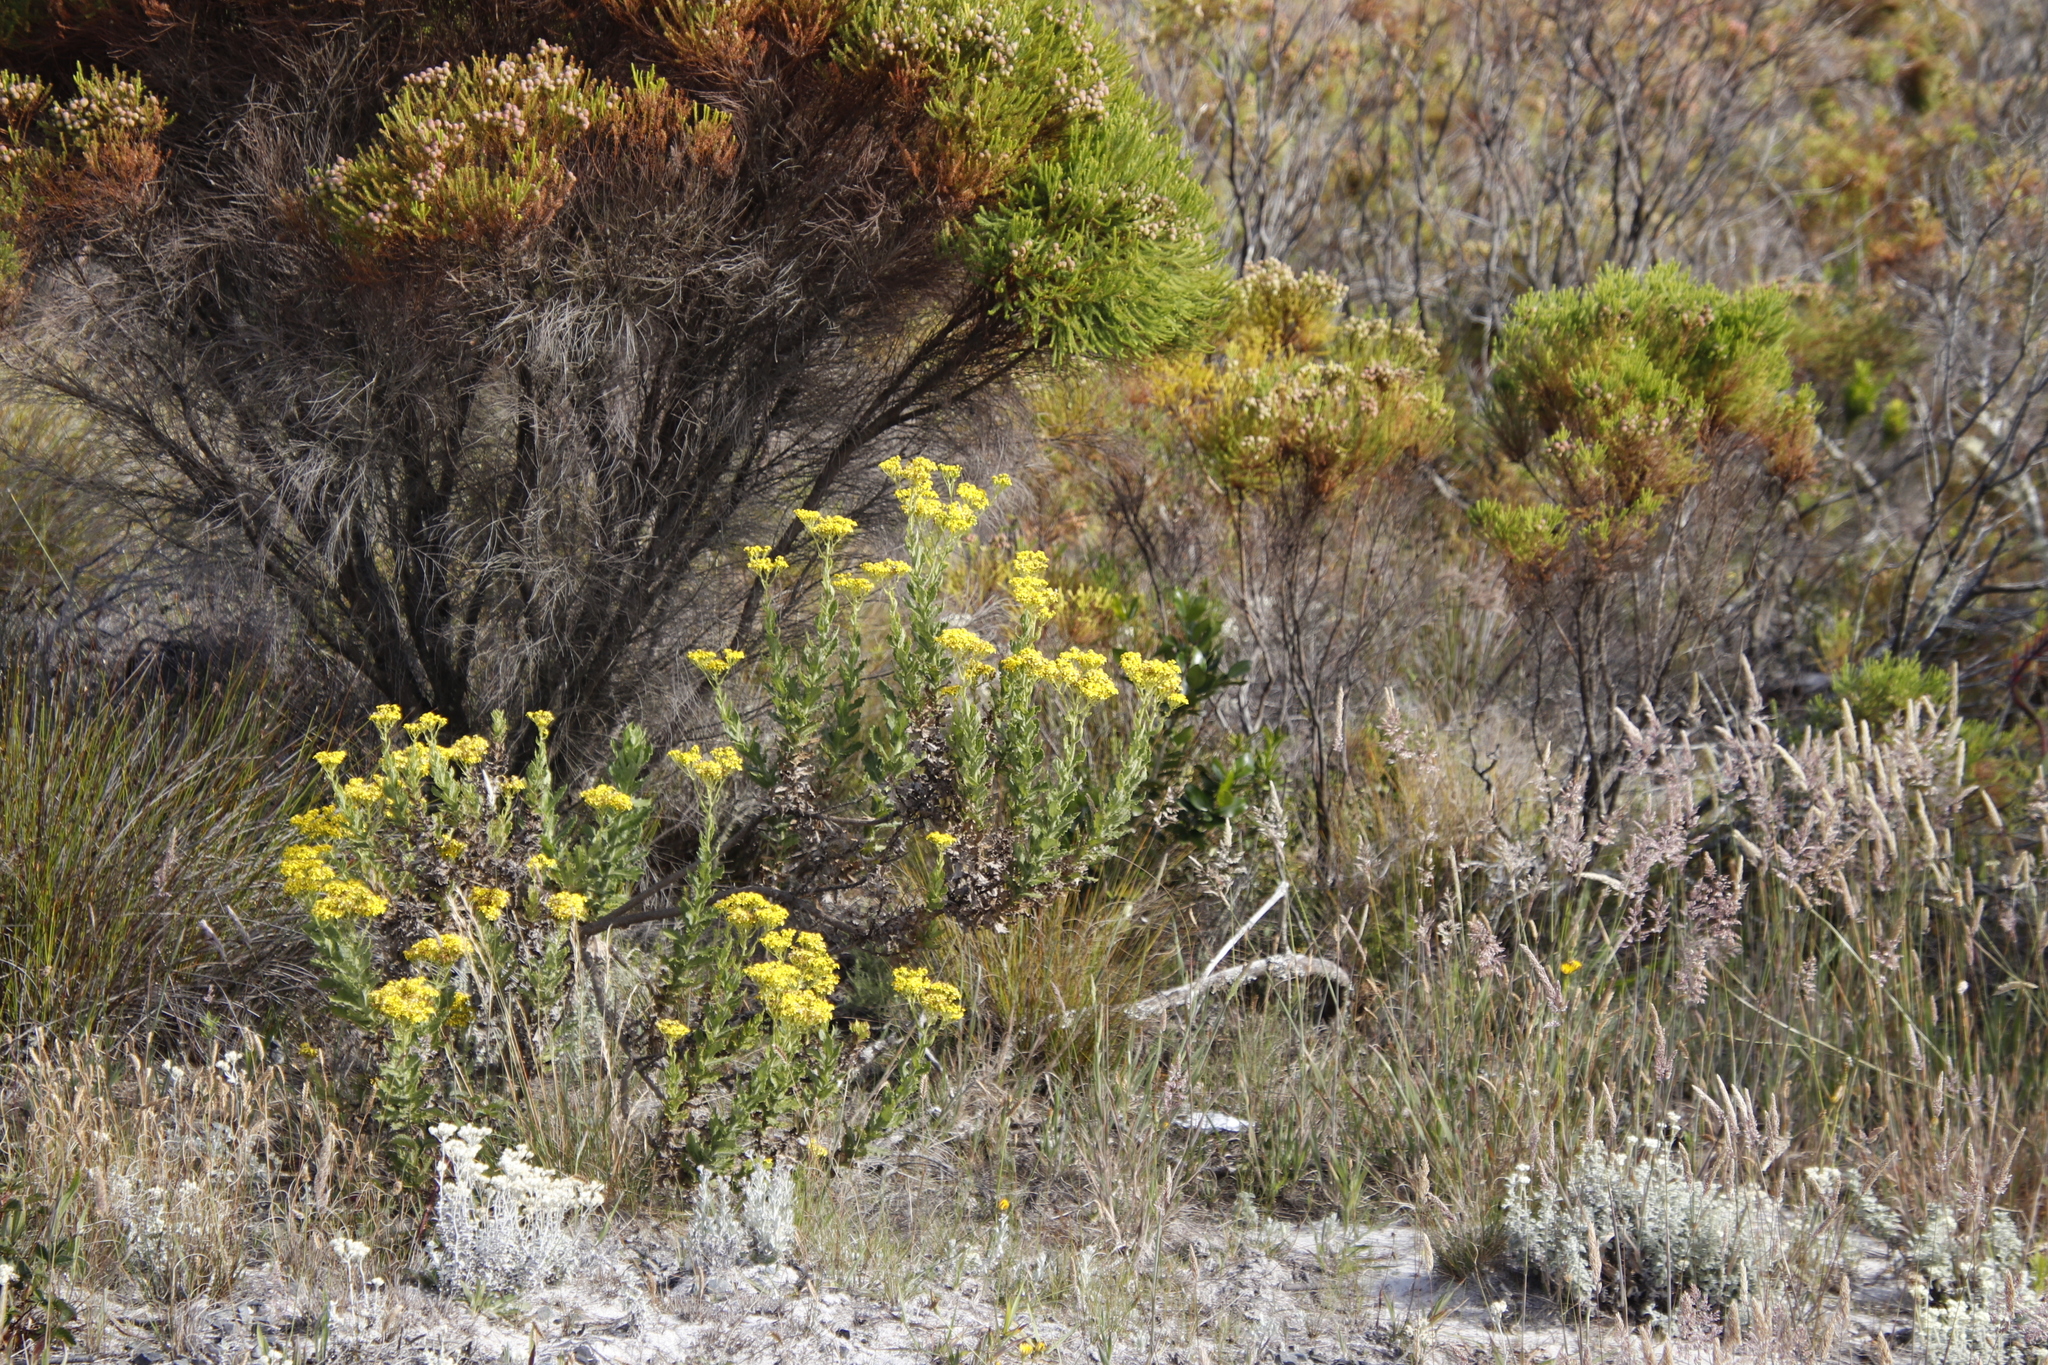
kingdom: Plantae
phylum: Tracheophyta
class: Magnoliopsida
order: Asterales
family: Asteraceae
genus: Senecio
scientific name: Senecio rigidus
